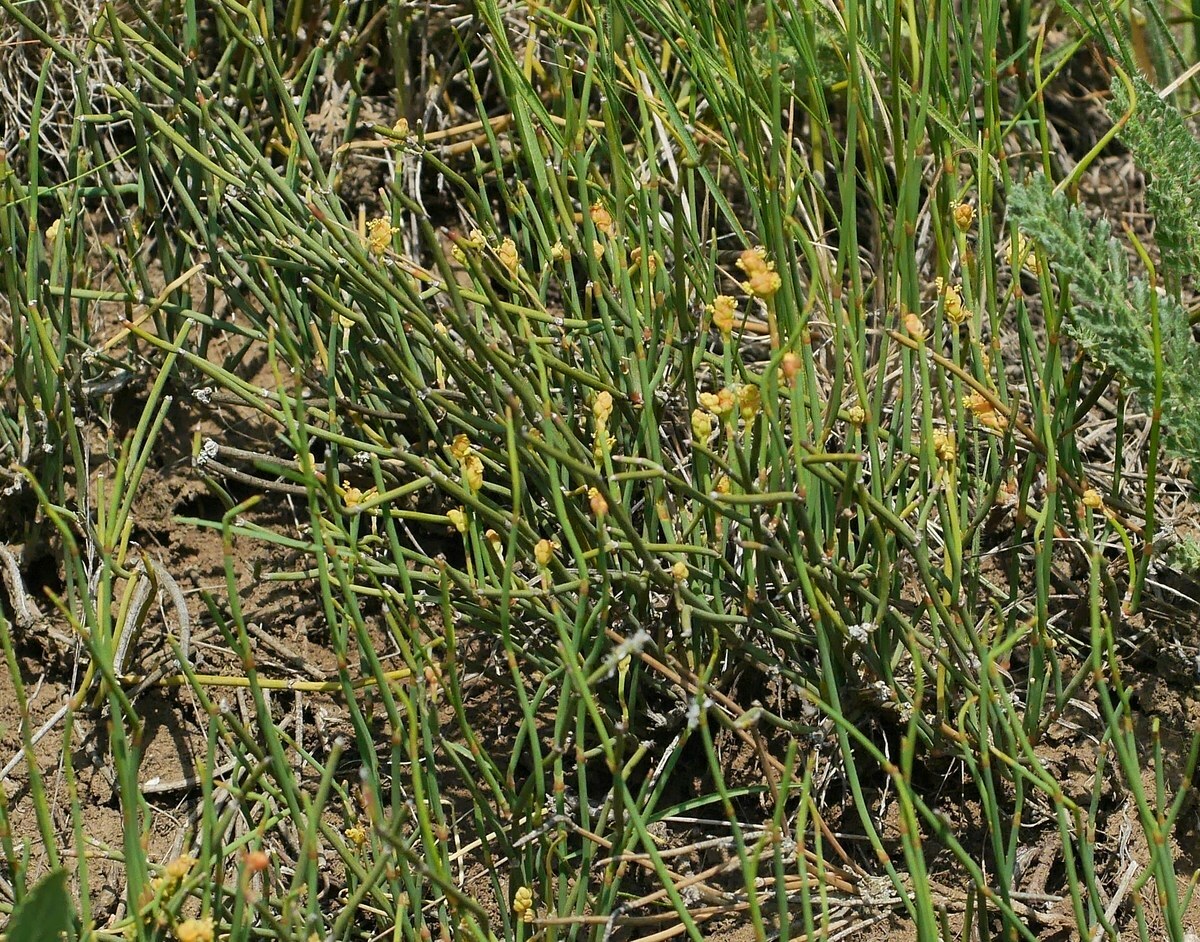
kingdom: Plantae
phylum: Tracheophyta
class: Gnetopsida
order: Ephedrales
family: Ephedraceae
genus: Ephedra
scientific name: Ephedra distachya
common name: Sea grape
